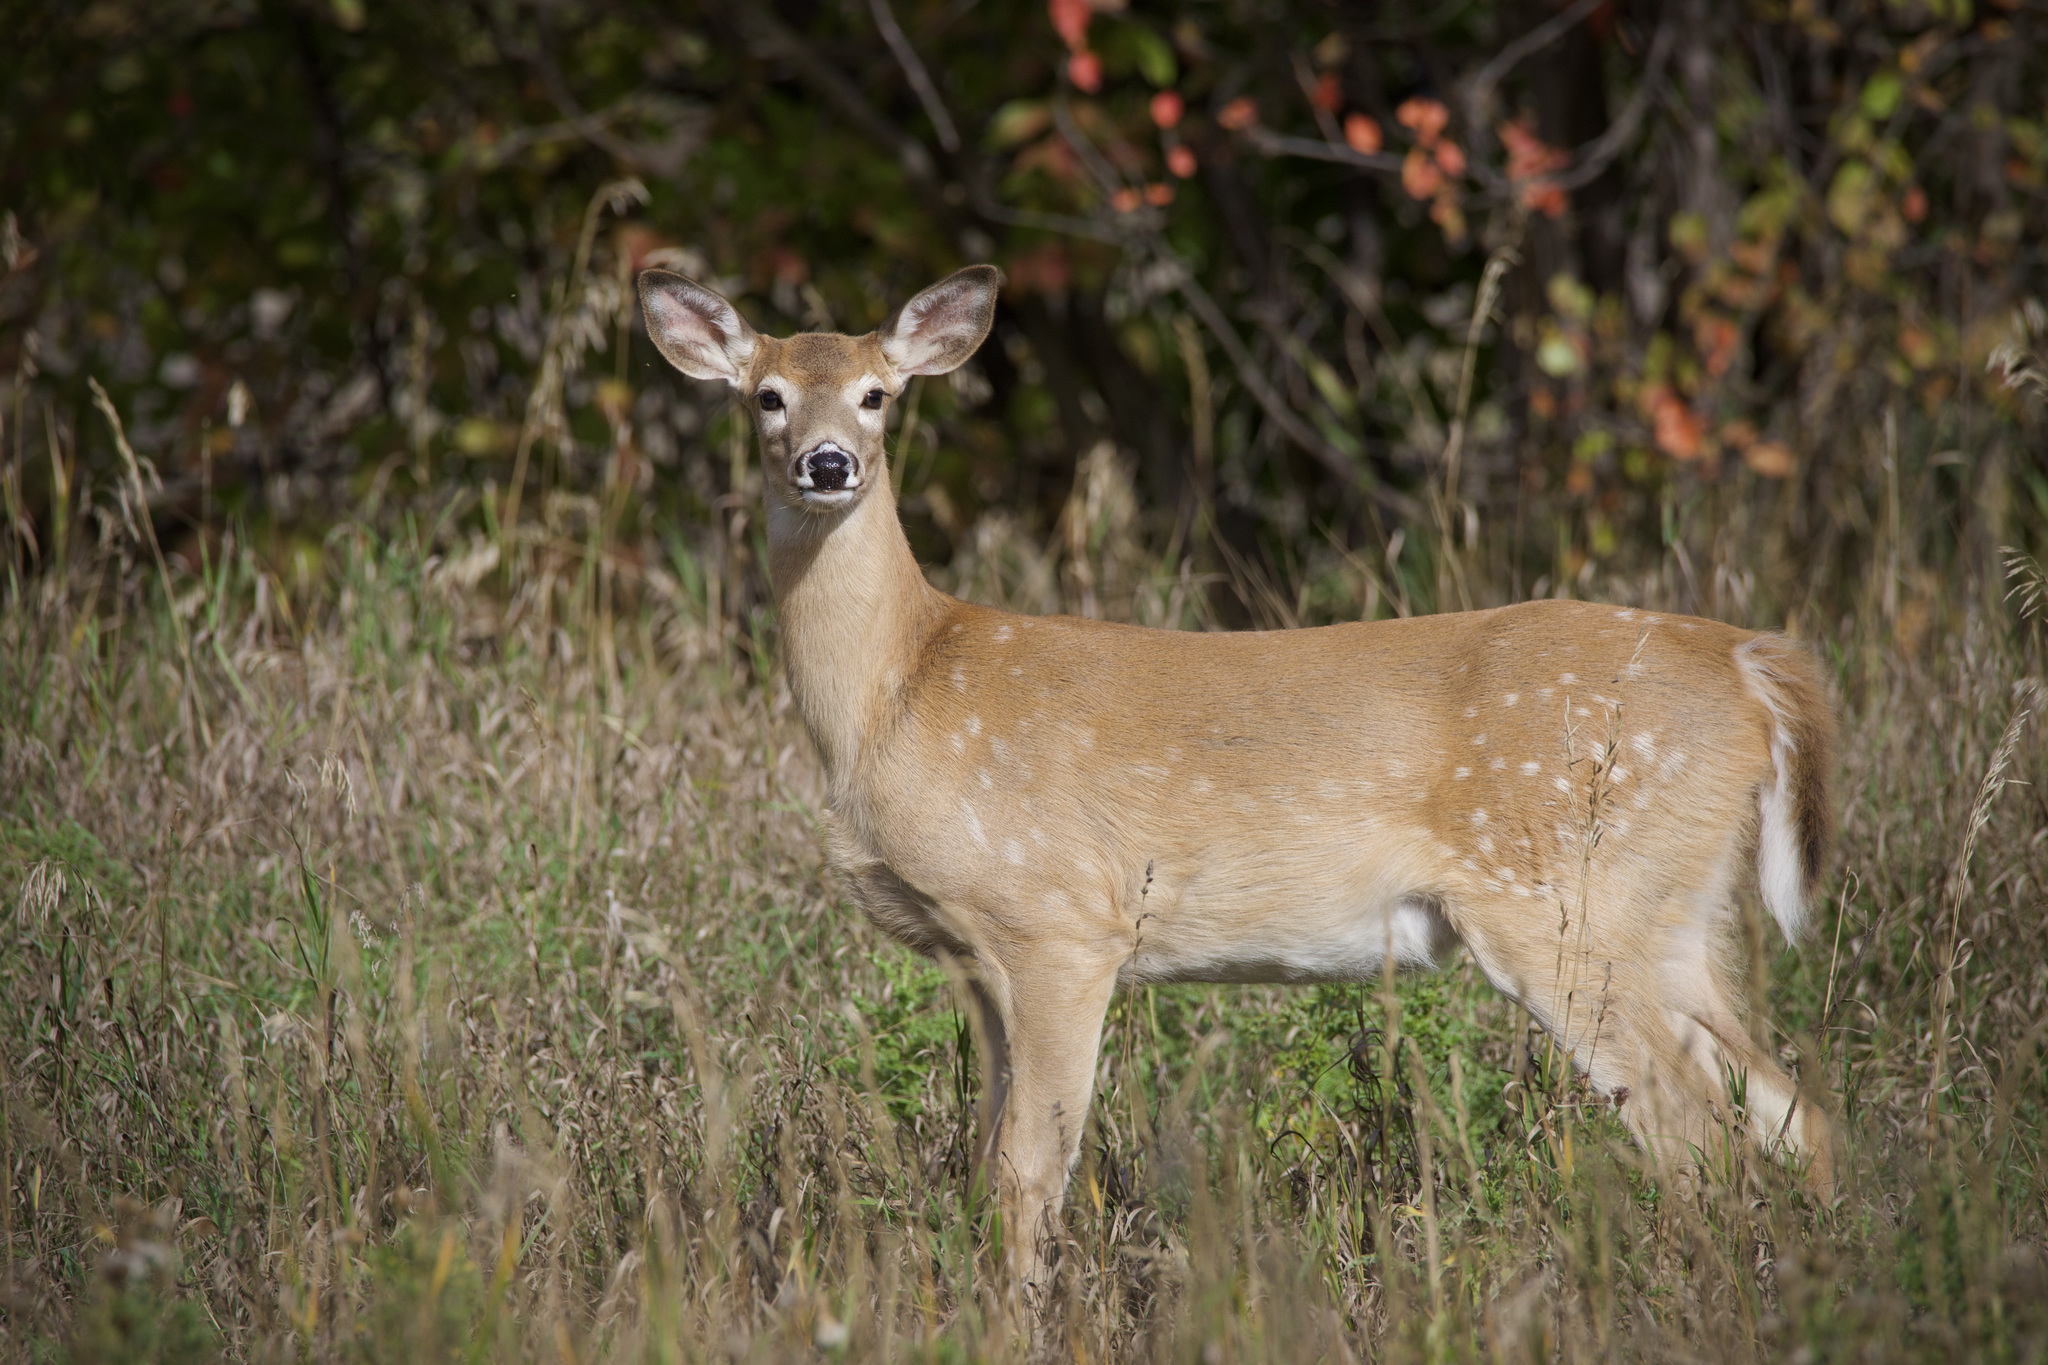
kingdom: Animalia
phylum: Chordata
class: Mammalia
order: Artiodactyla
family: Cervidae
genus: Odocoileus
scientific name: Odocoileus virginianus
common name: White-tailed deer
